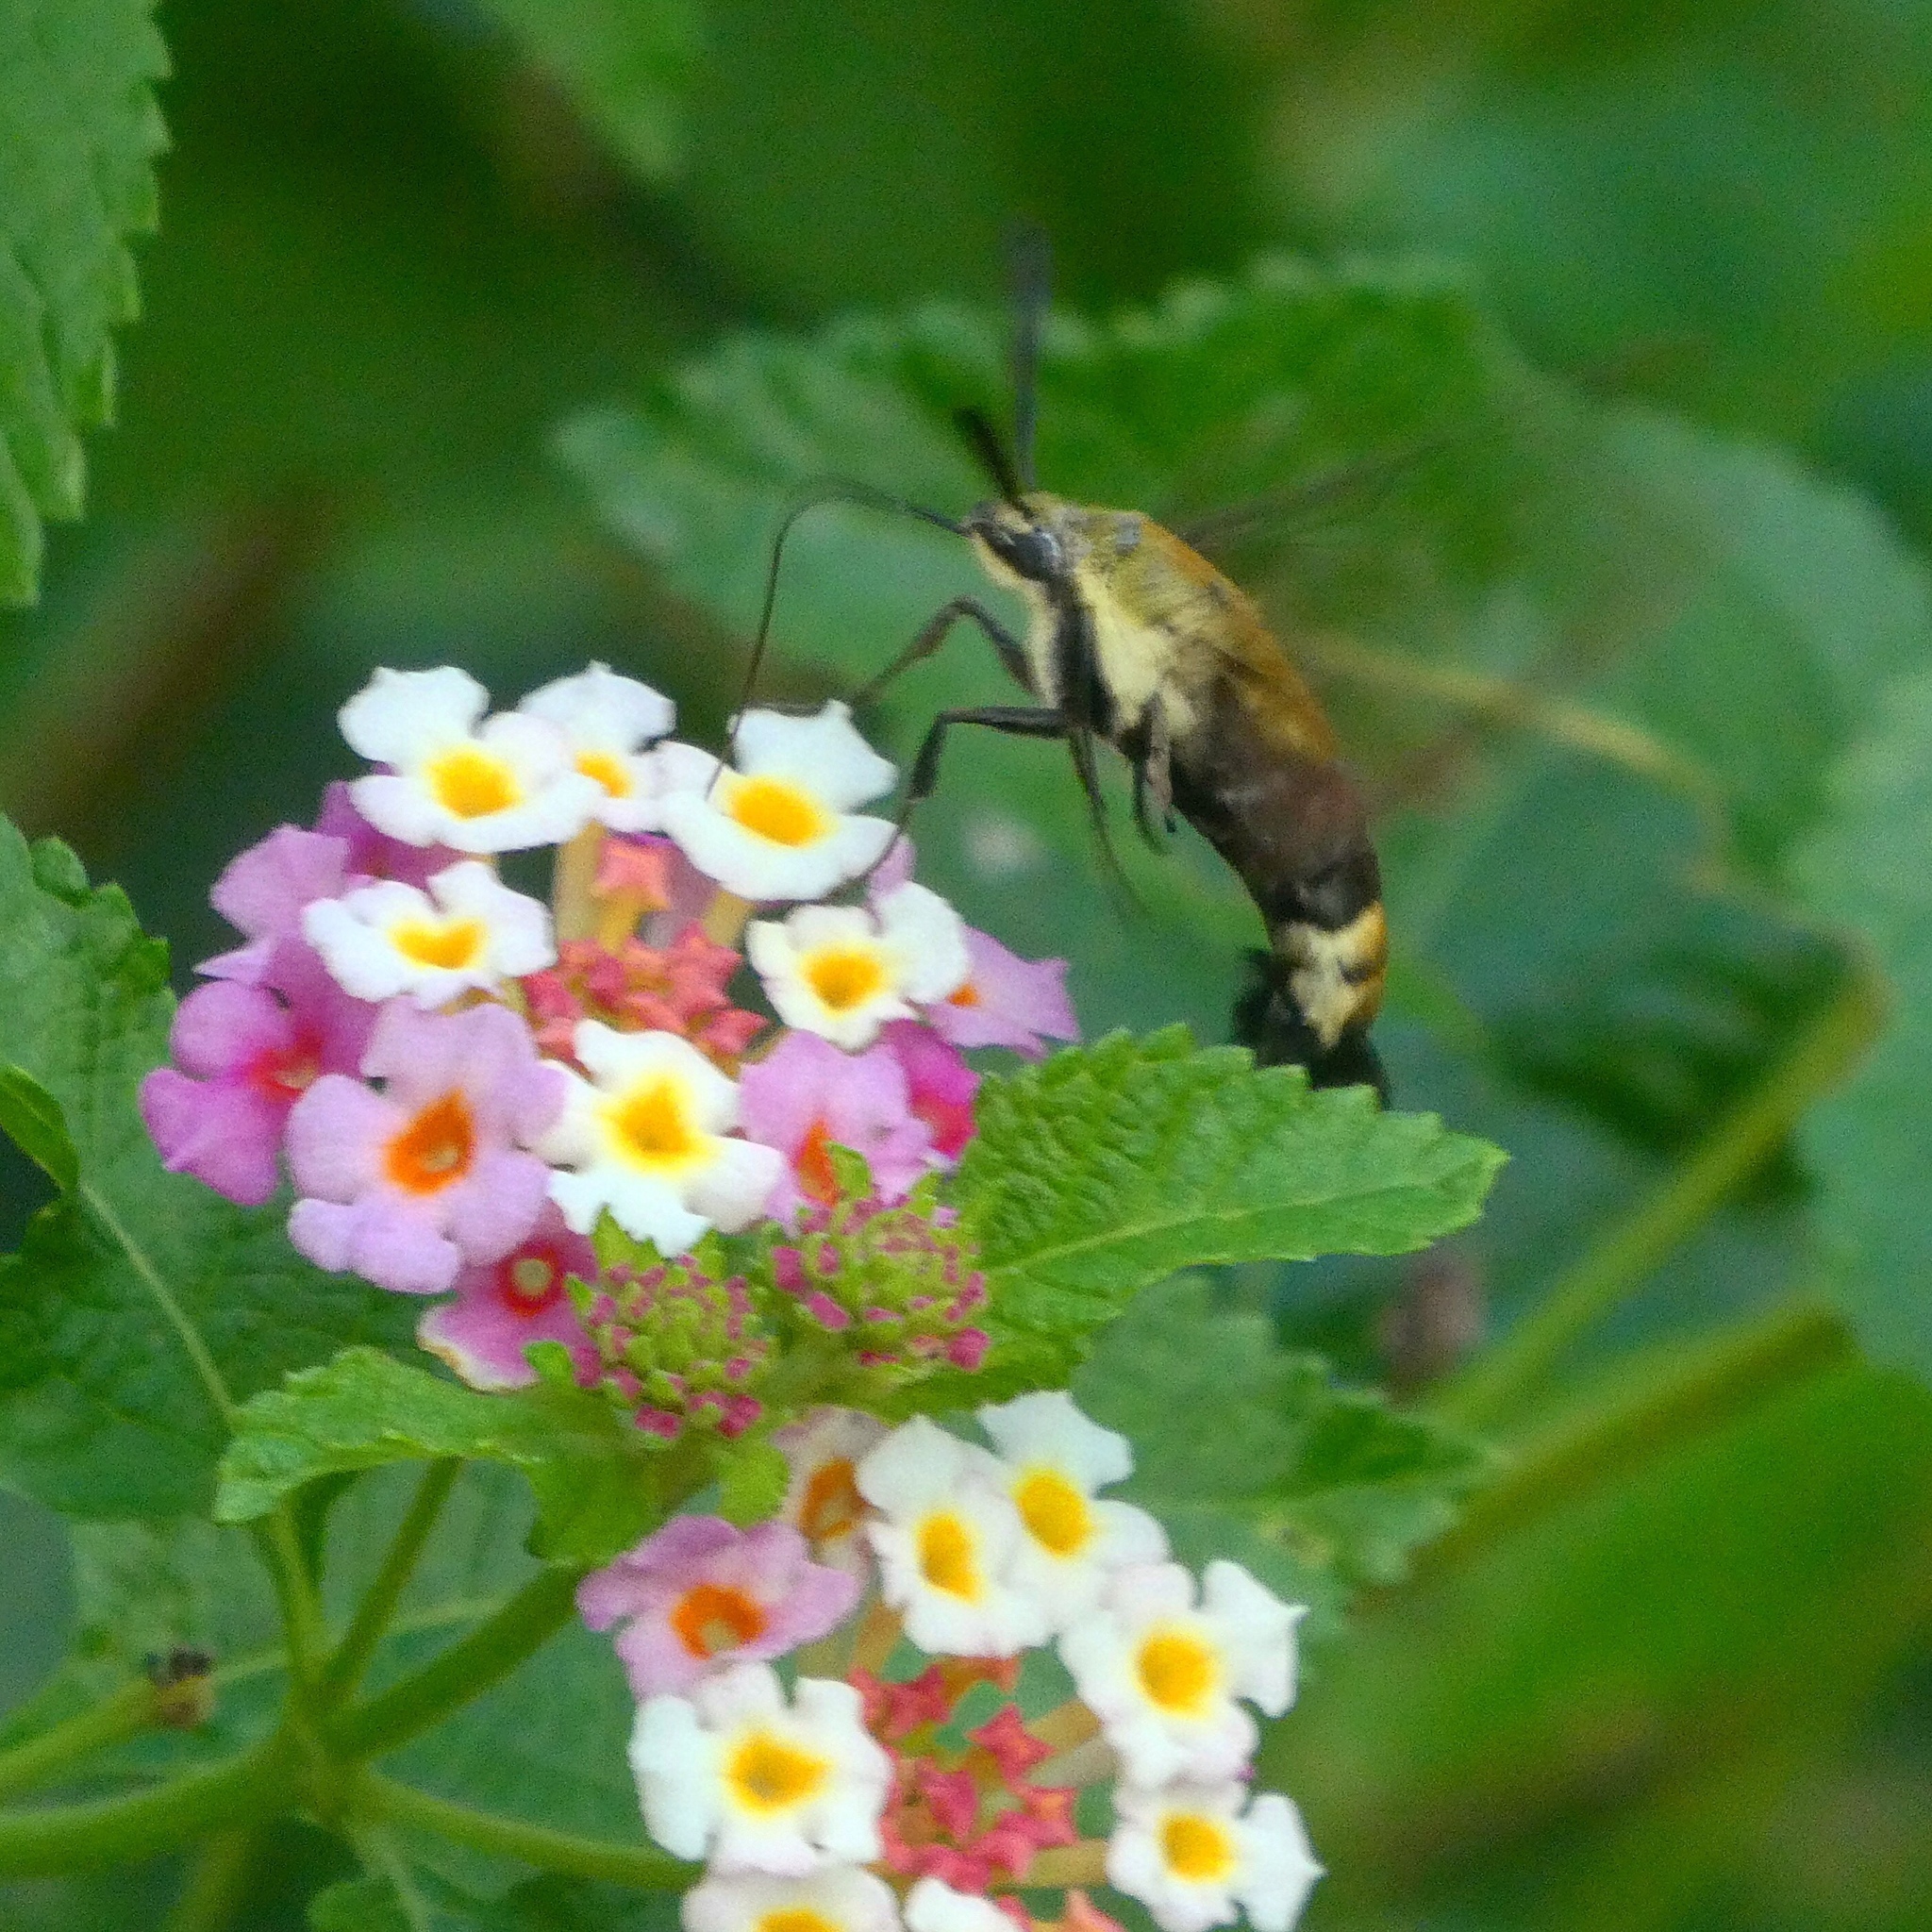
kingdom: Animalia
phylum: Arthropoda
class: Insecta
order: Lepidoptera
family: Sphingidae
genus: Hemaris
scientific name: Hemaris diffinis
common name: Bumblebee moth
